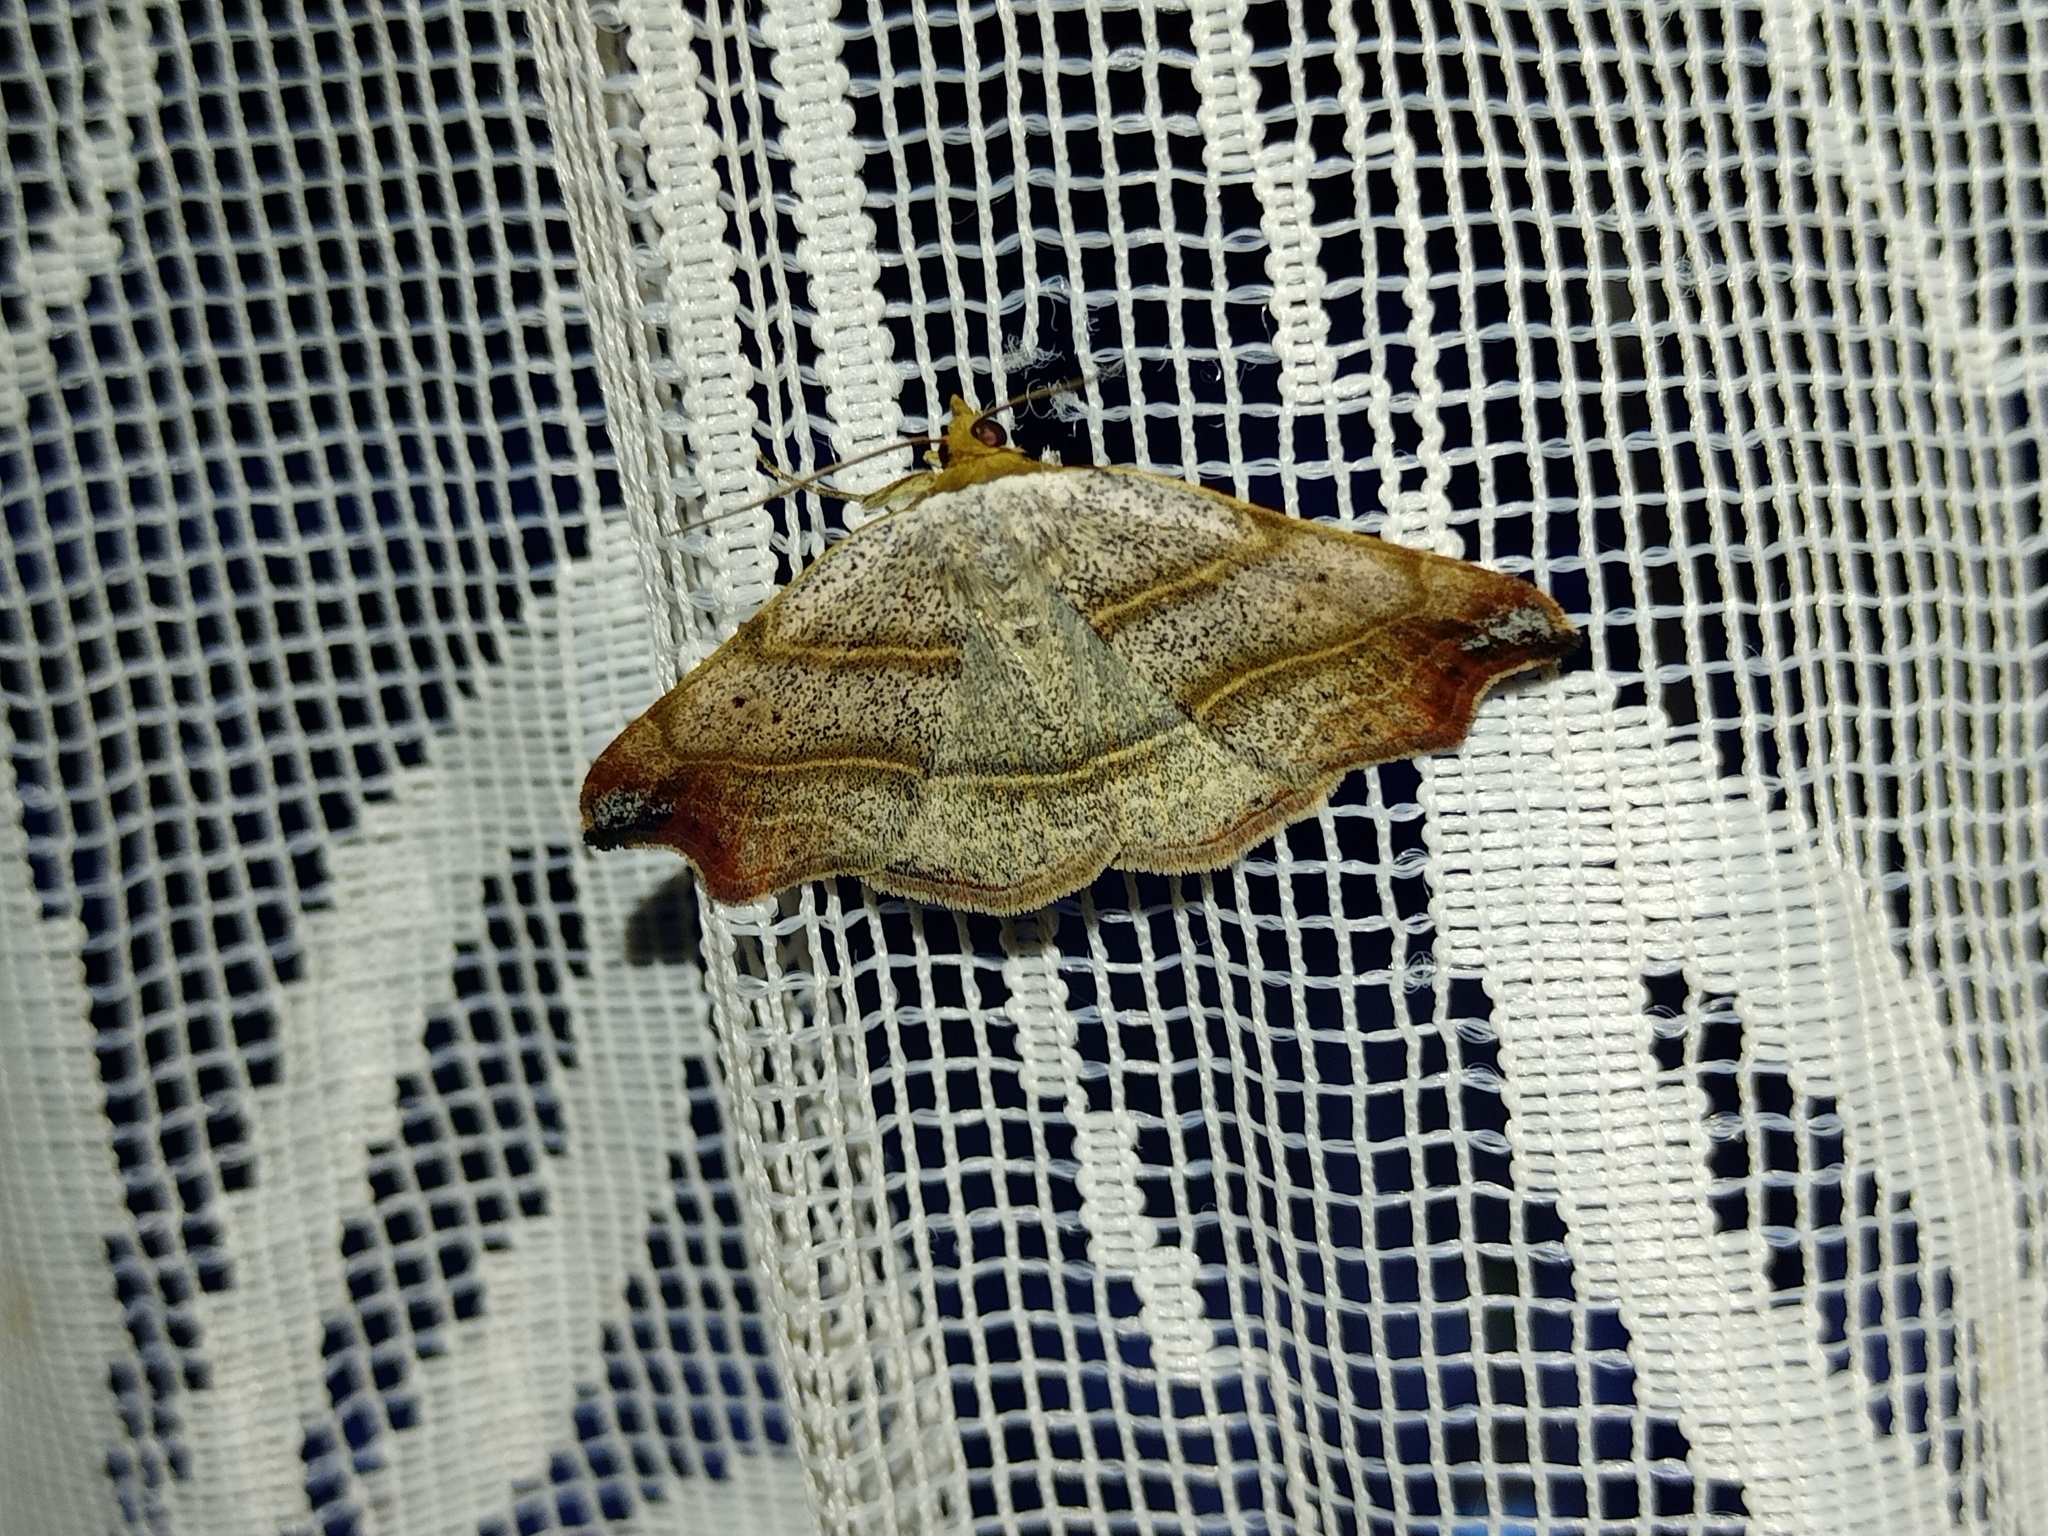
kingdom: Animalia
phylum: Arthropoda
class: Insecta
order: Lepidoptera
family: Erebidae
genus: Laspeyria
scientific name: Laspeyria flexula
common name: Beautiful hook-tip
